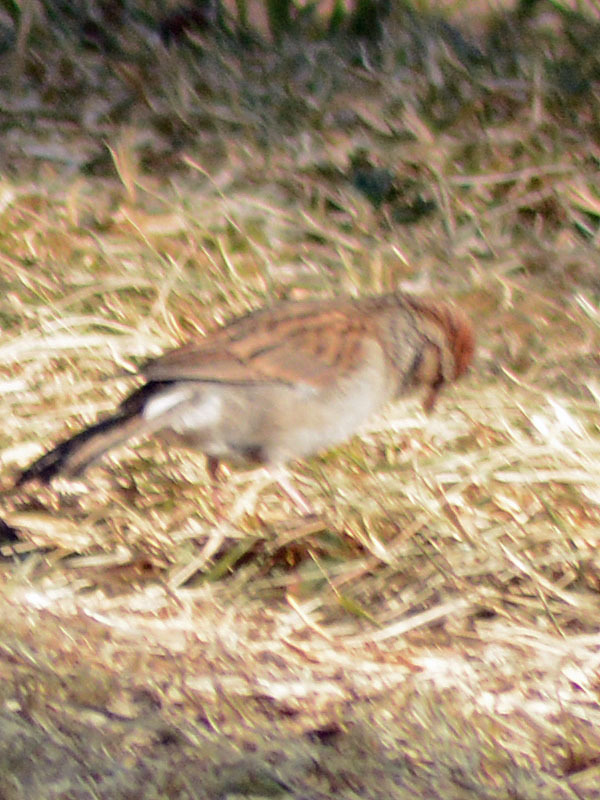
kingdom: Animalia
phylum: Chordata
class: Aves
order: Passeriformes
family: Passerellidae
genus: Spizella
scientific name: Spizella passerina
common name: Chipping sparrow
